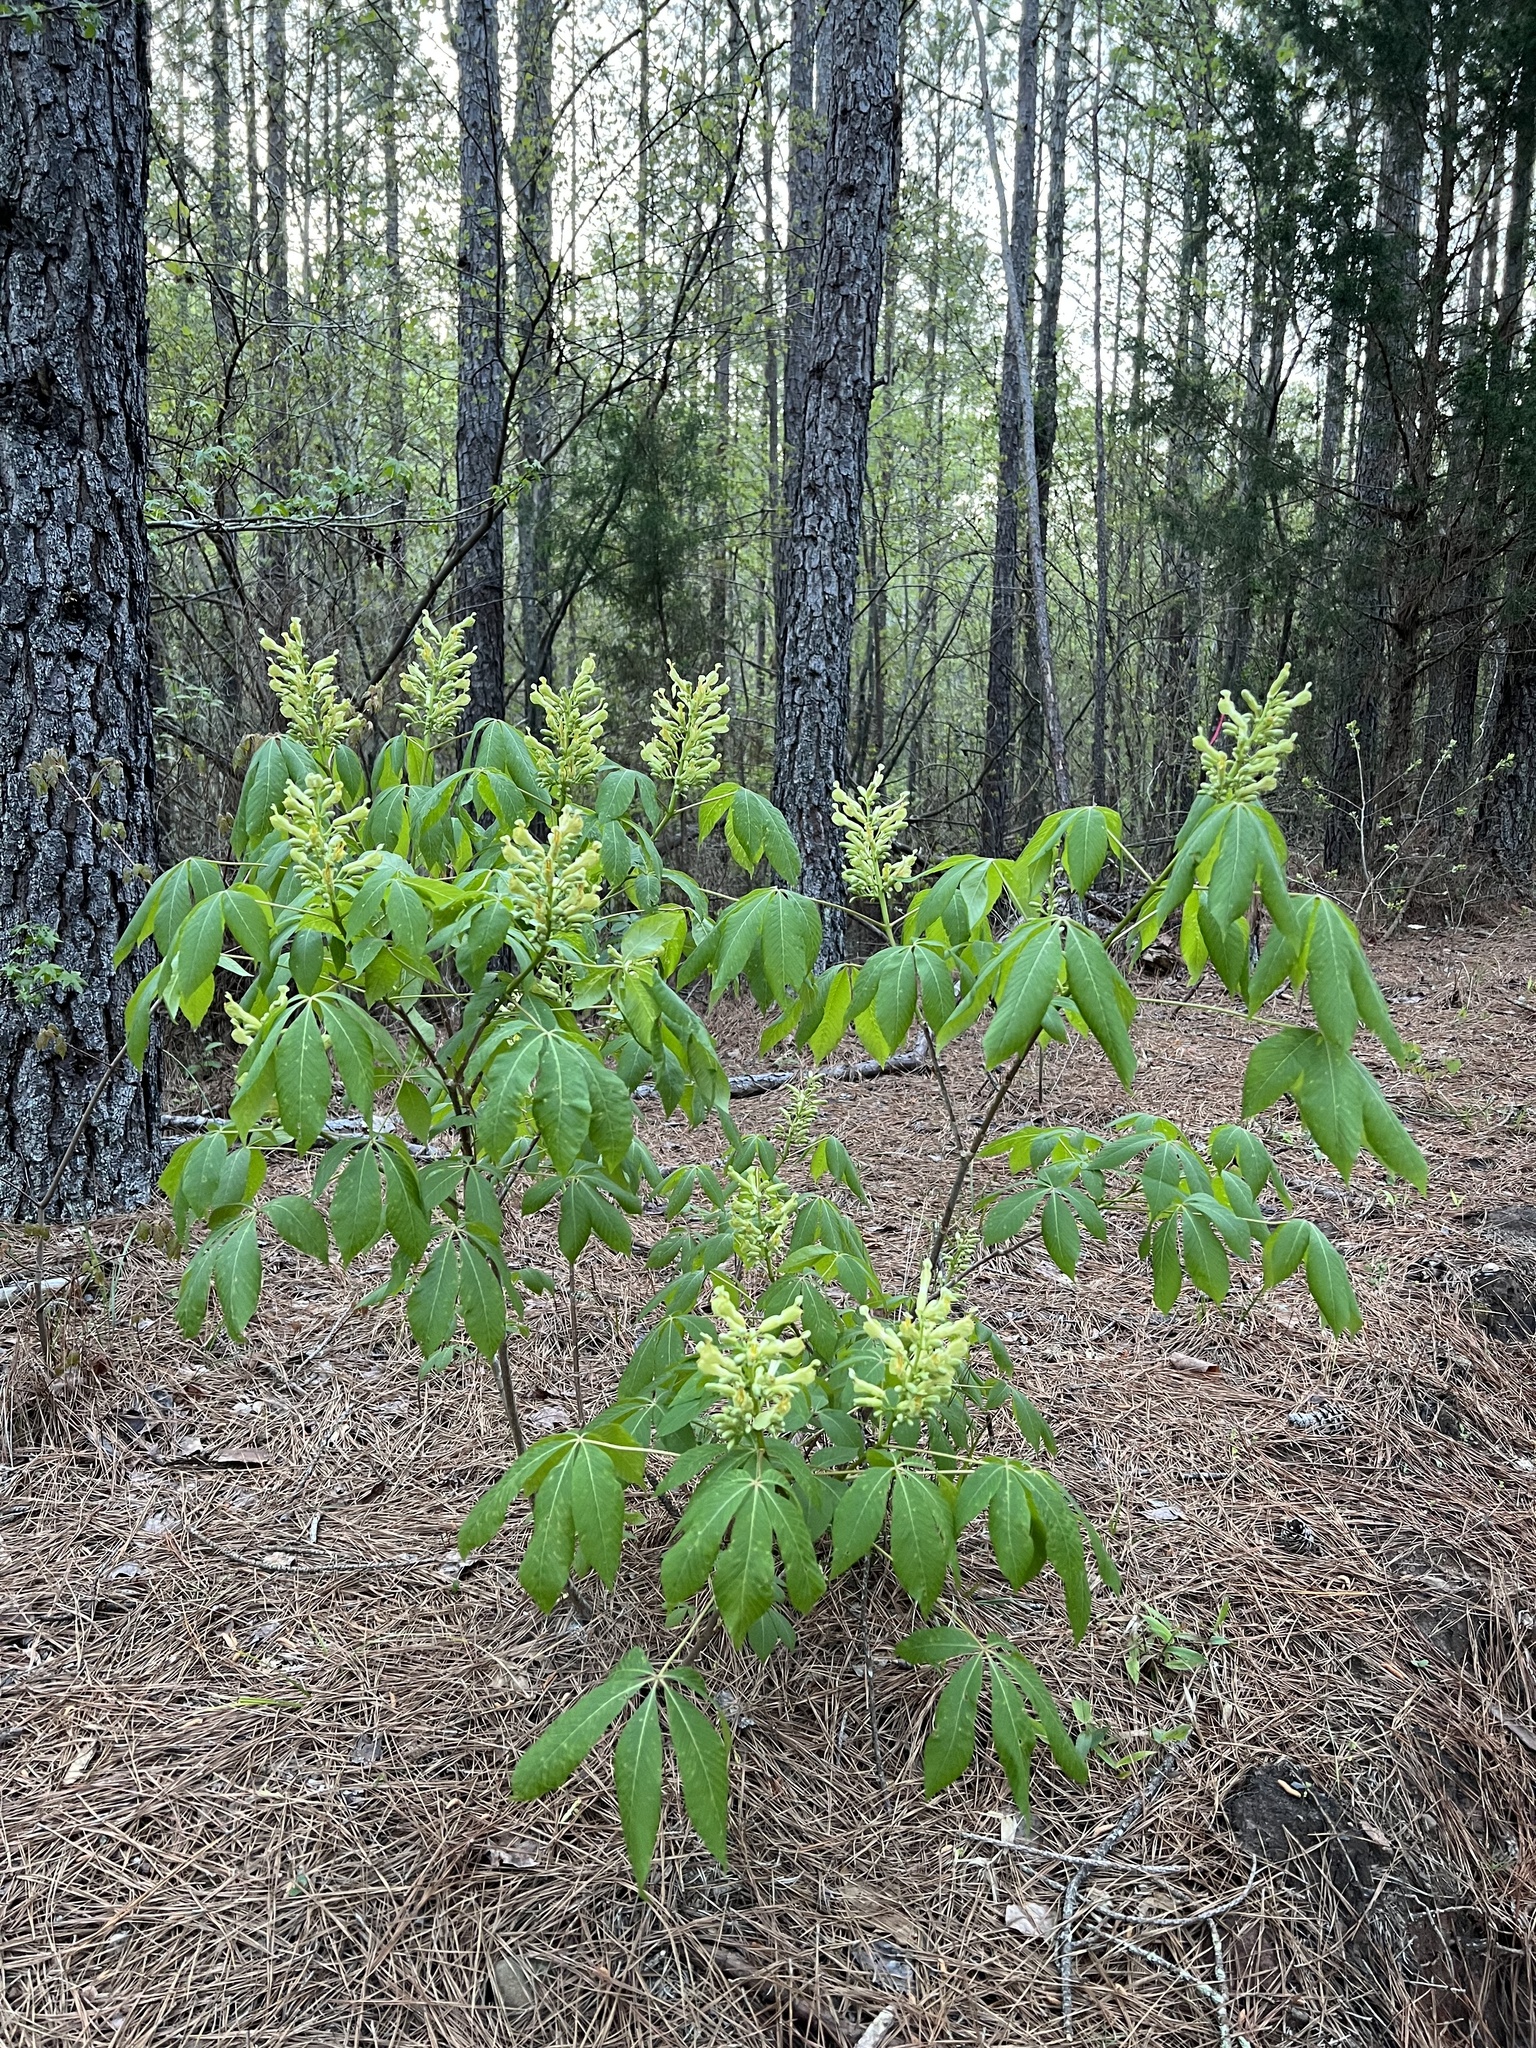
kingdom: Plantae
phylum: Tracheophyta
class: Magnoliopsida
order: Sapindales
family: Sapindaceae
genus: Aesculus
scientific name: Aesculus sylvatica
